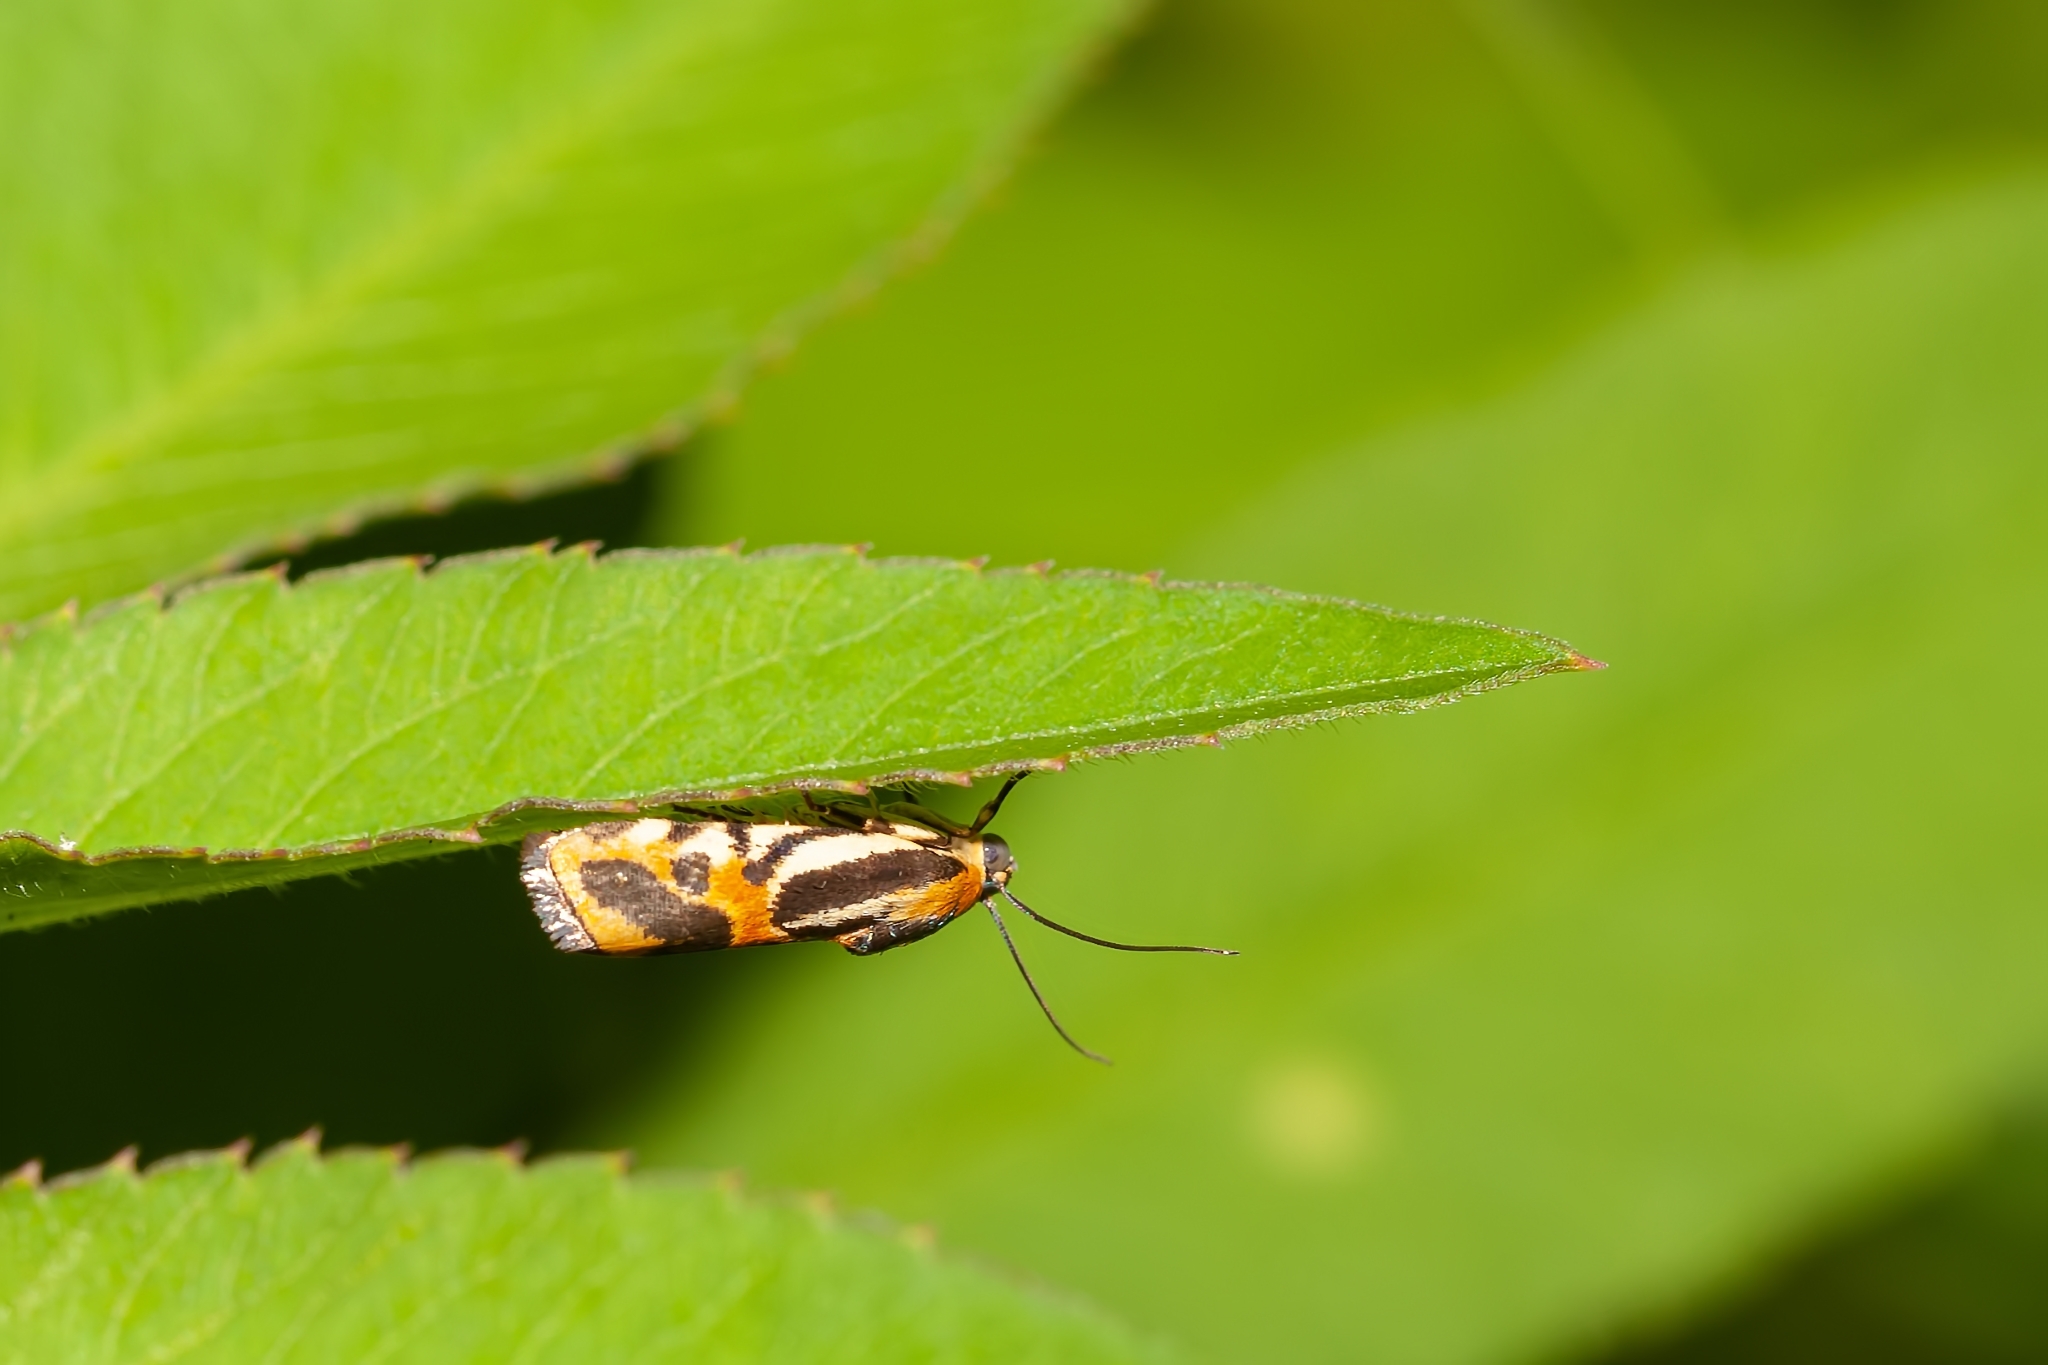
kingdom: Animalia
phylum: Arthropoda
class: Insecta
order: Lepidoptera
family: Noctuidae
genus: Acontia
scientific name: Acontia onagrus
